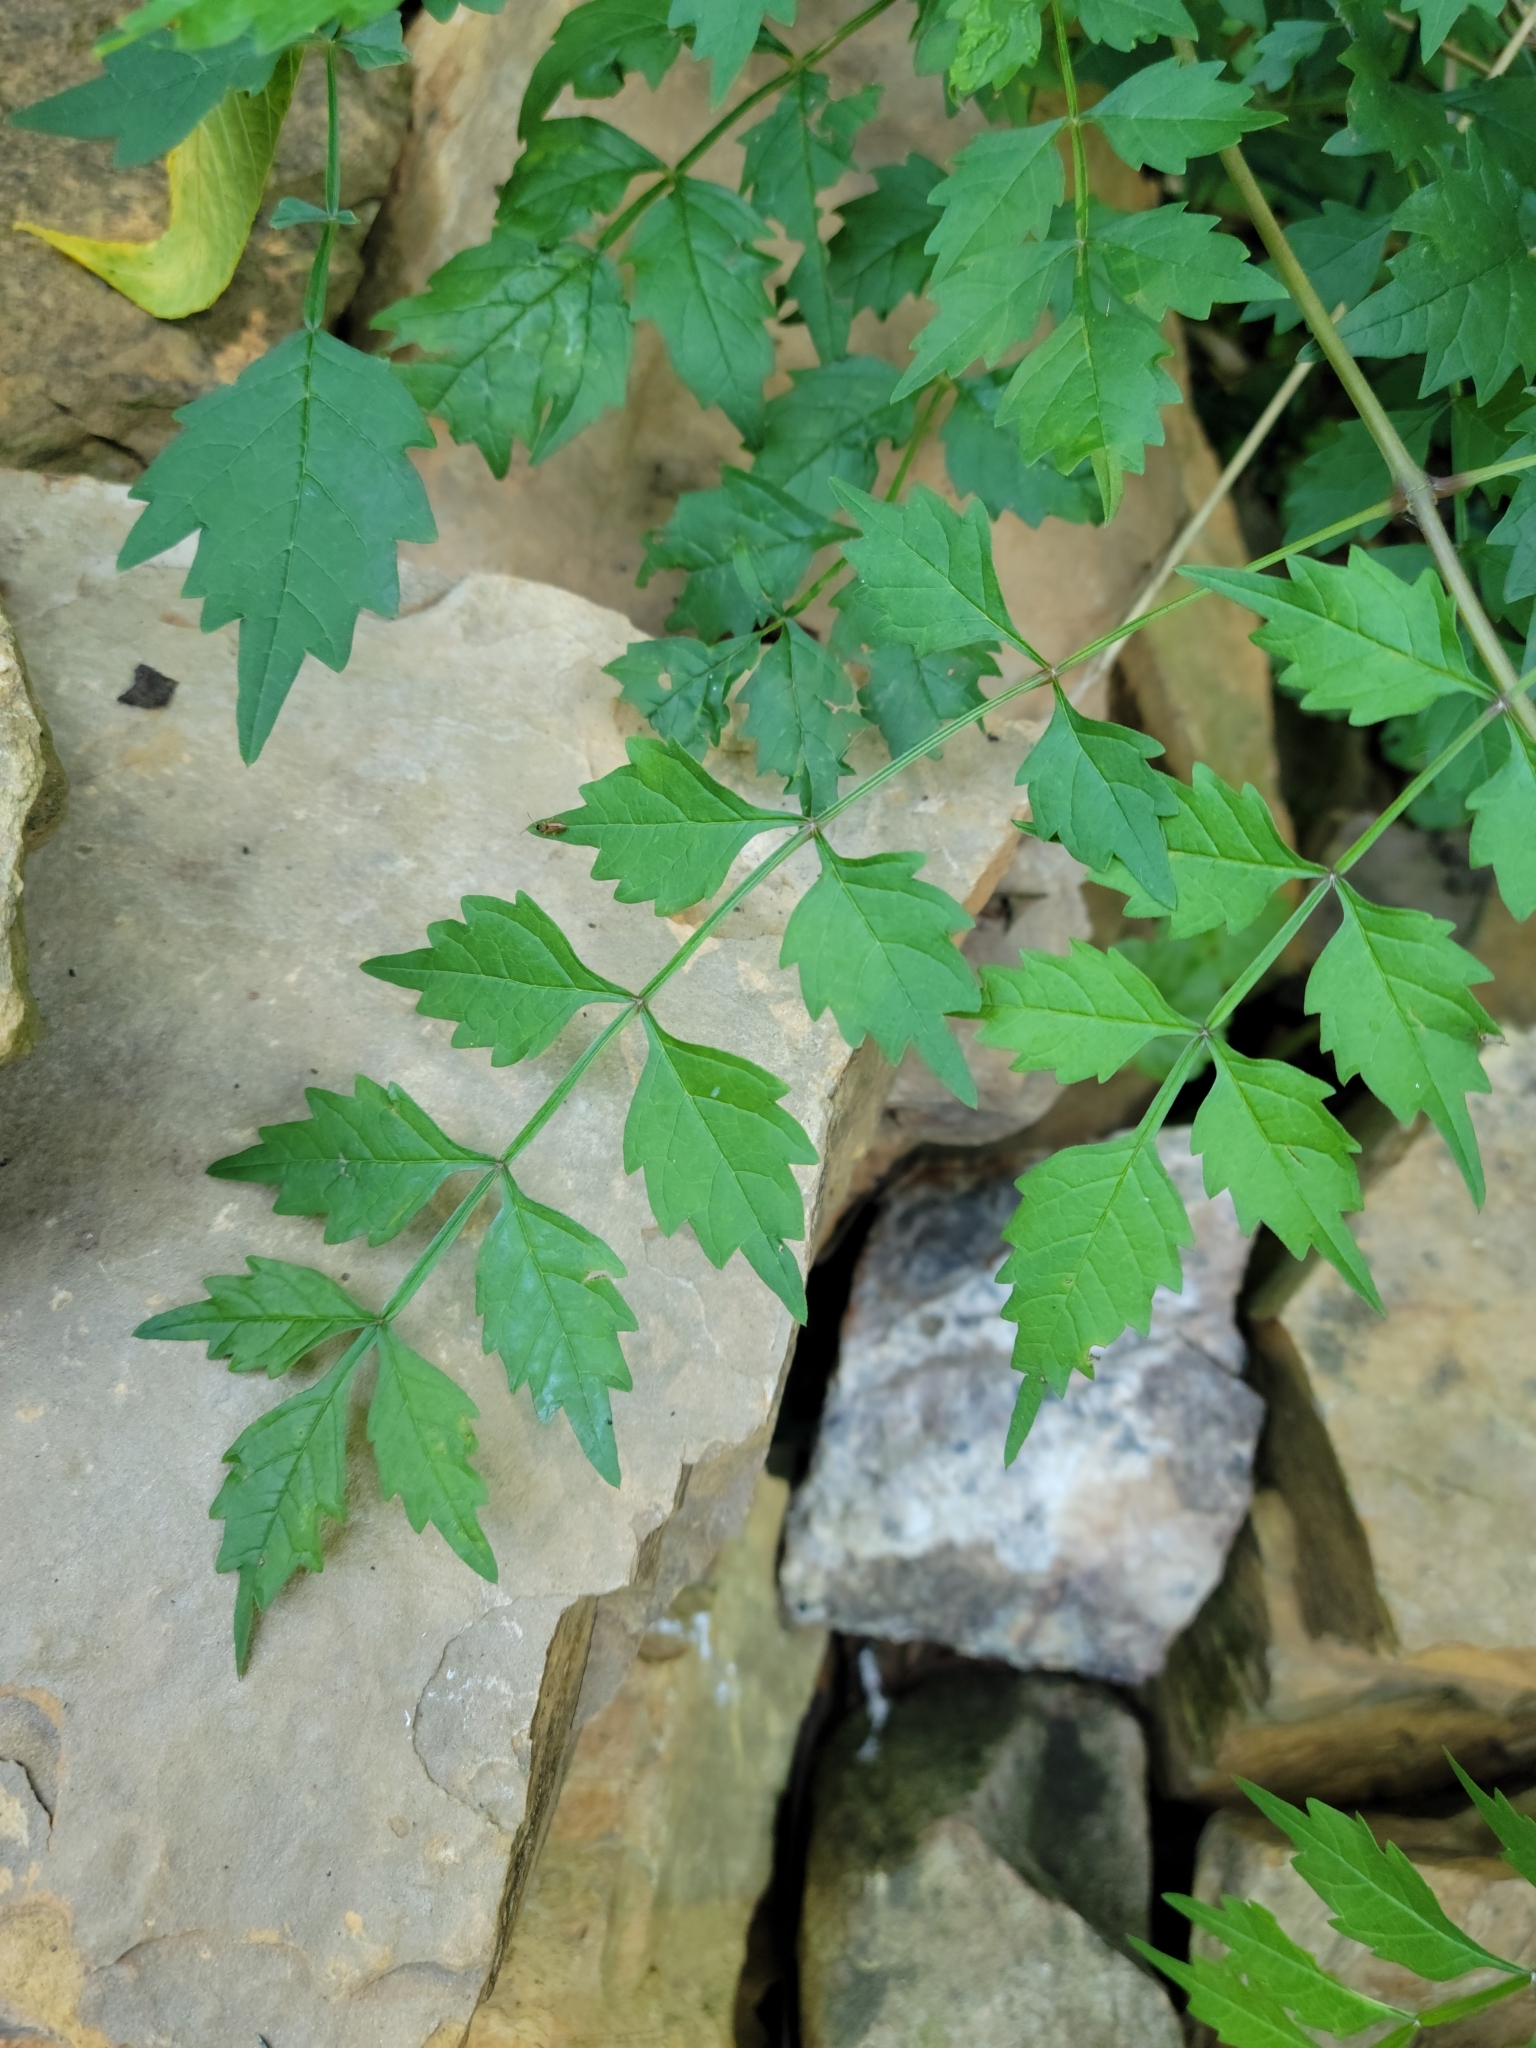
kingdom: Plantae
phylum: Tracheophyta
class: Magnoliopsida
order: Lamiales
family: Bignoniaceae
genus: Campsis
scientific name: Campsis radicans
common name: Trumpet-creeper
